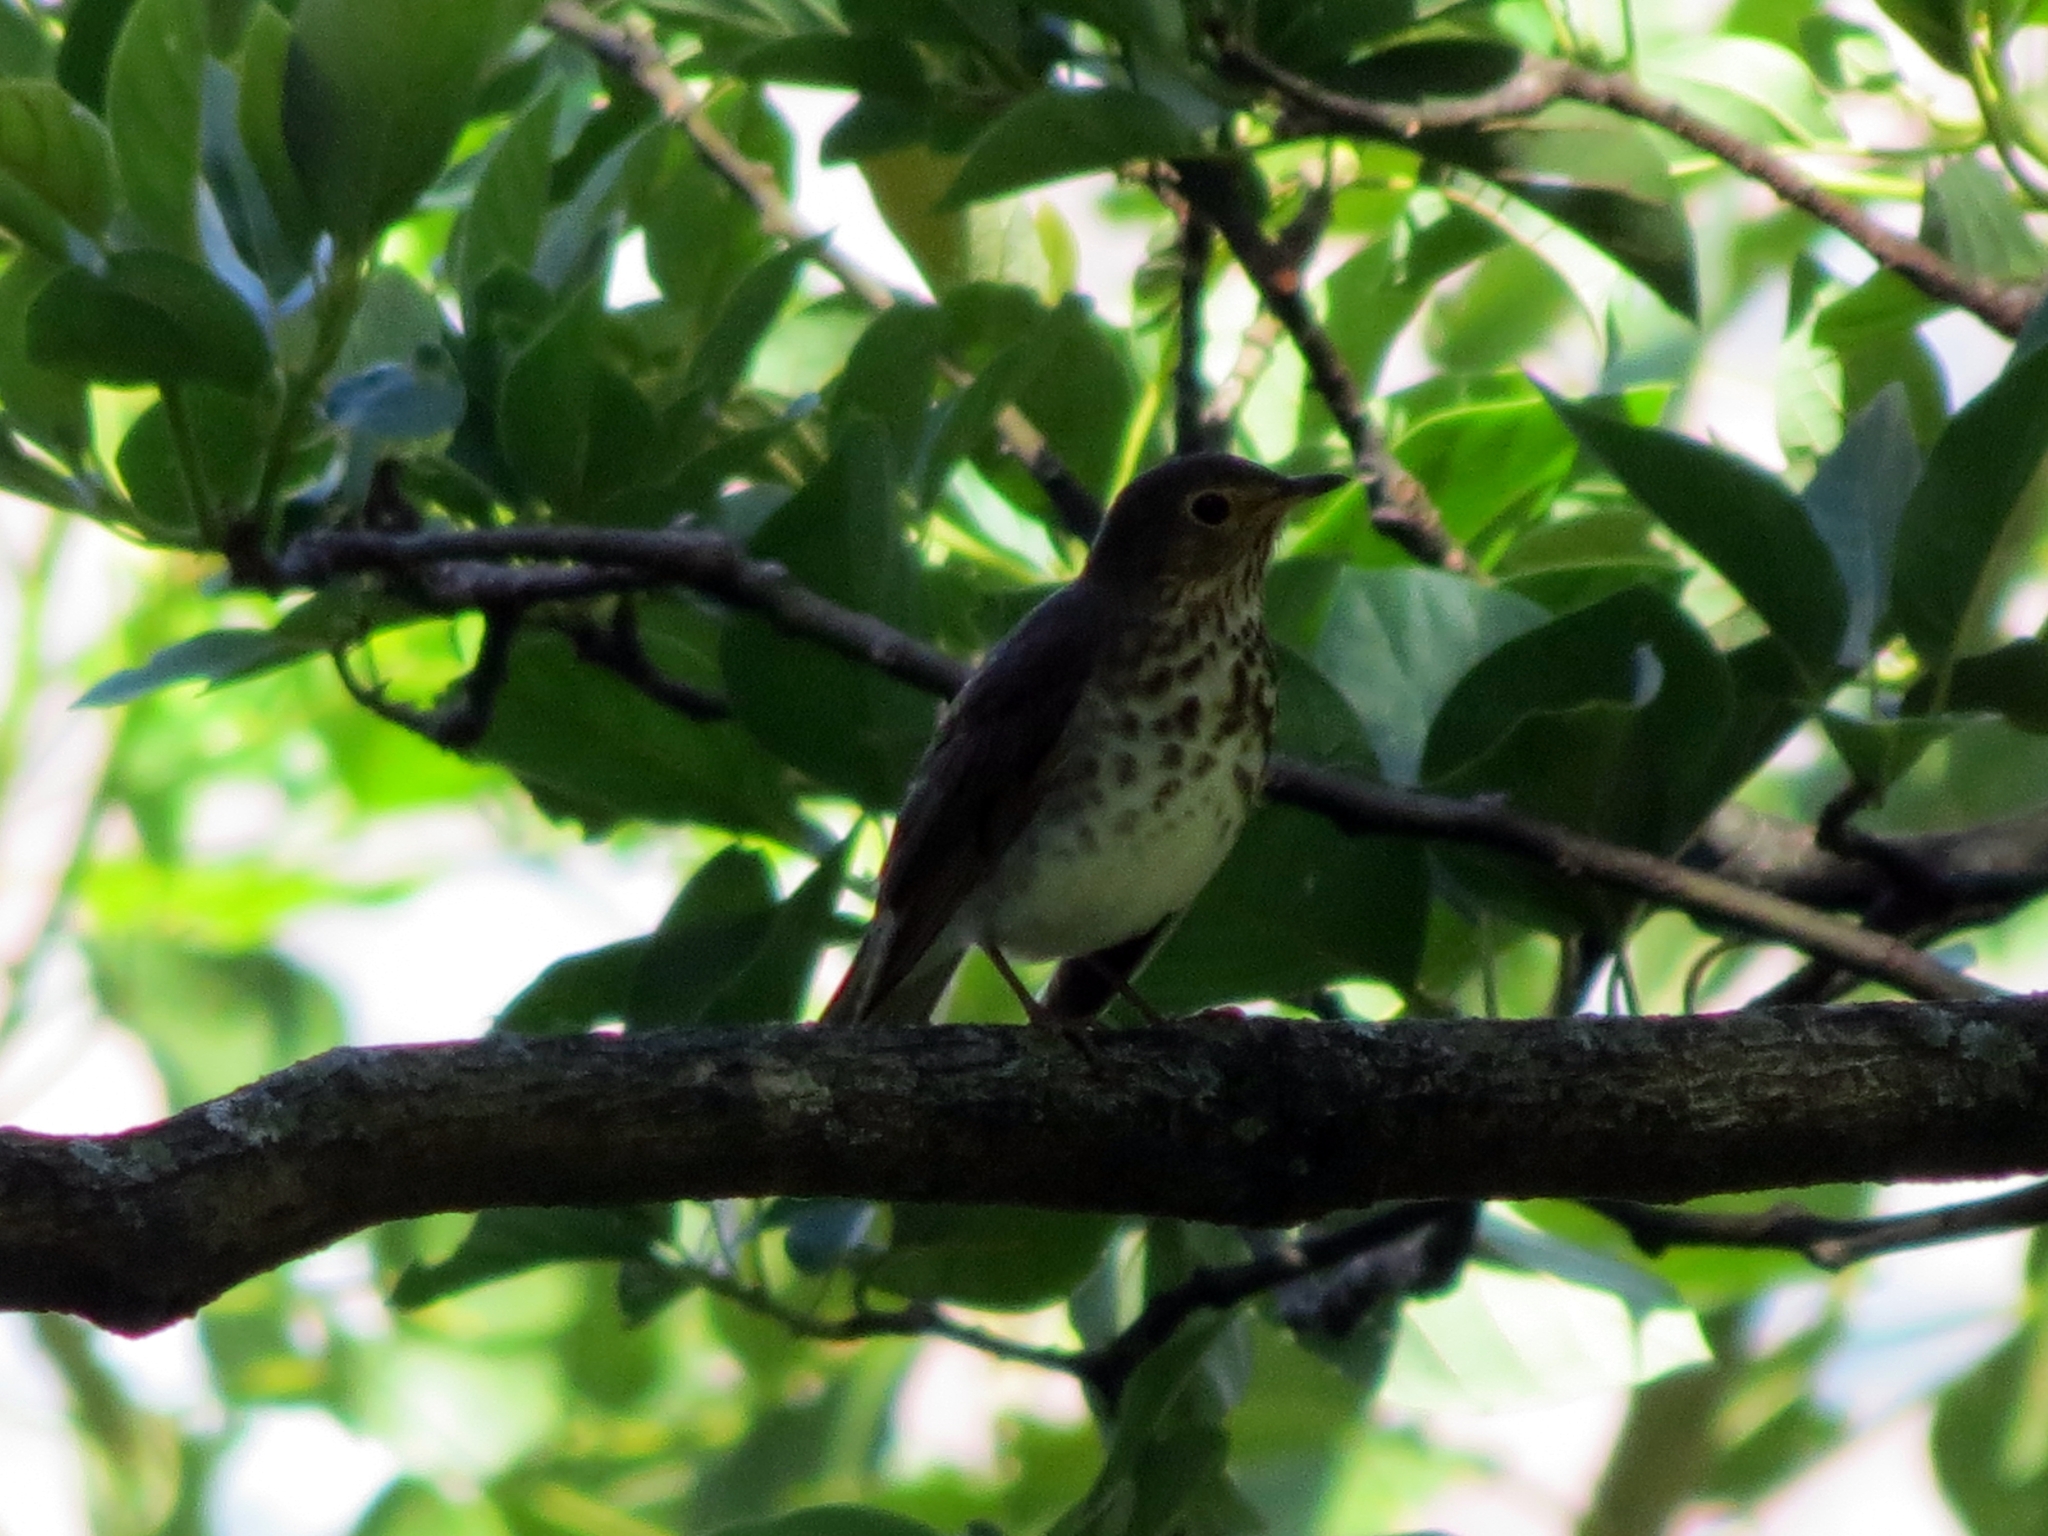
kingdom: Animalia
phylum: Chordata
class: Aves
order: Passeriformes
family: Turdidae
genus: Catharus
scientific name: Catharus ustulatus
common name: Swainson's thrush
